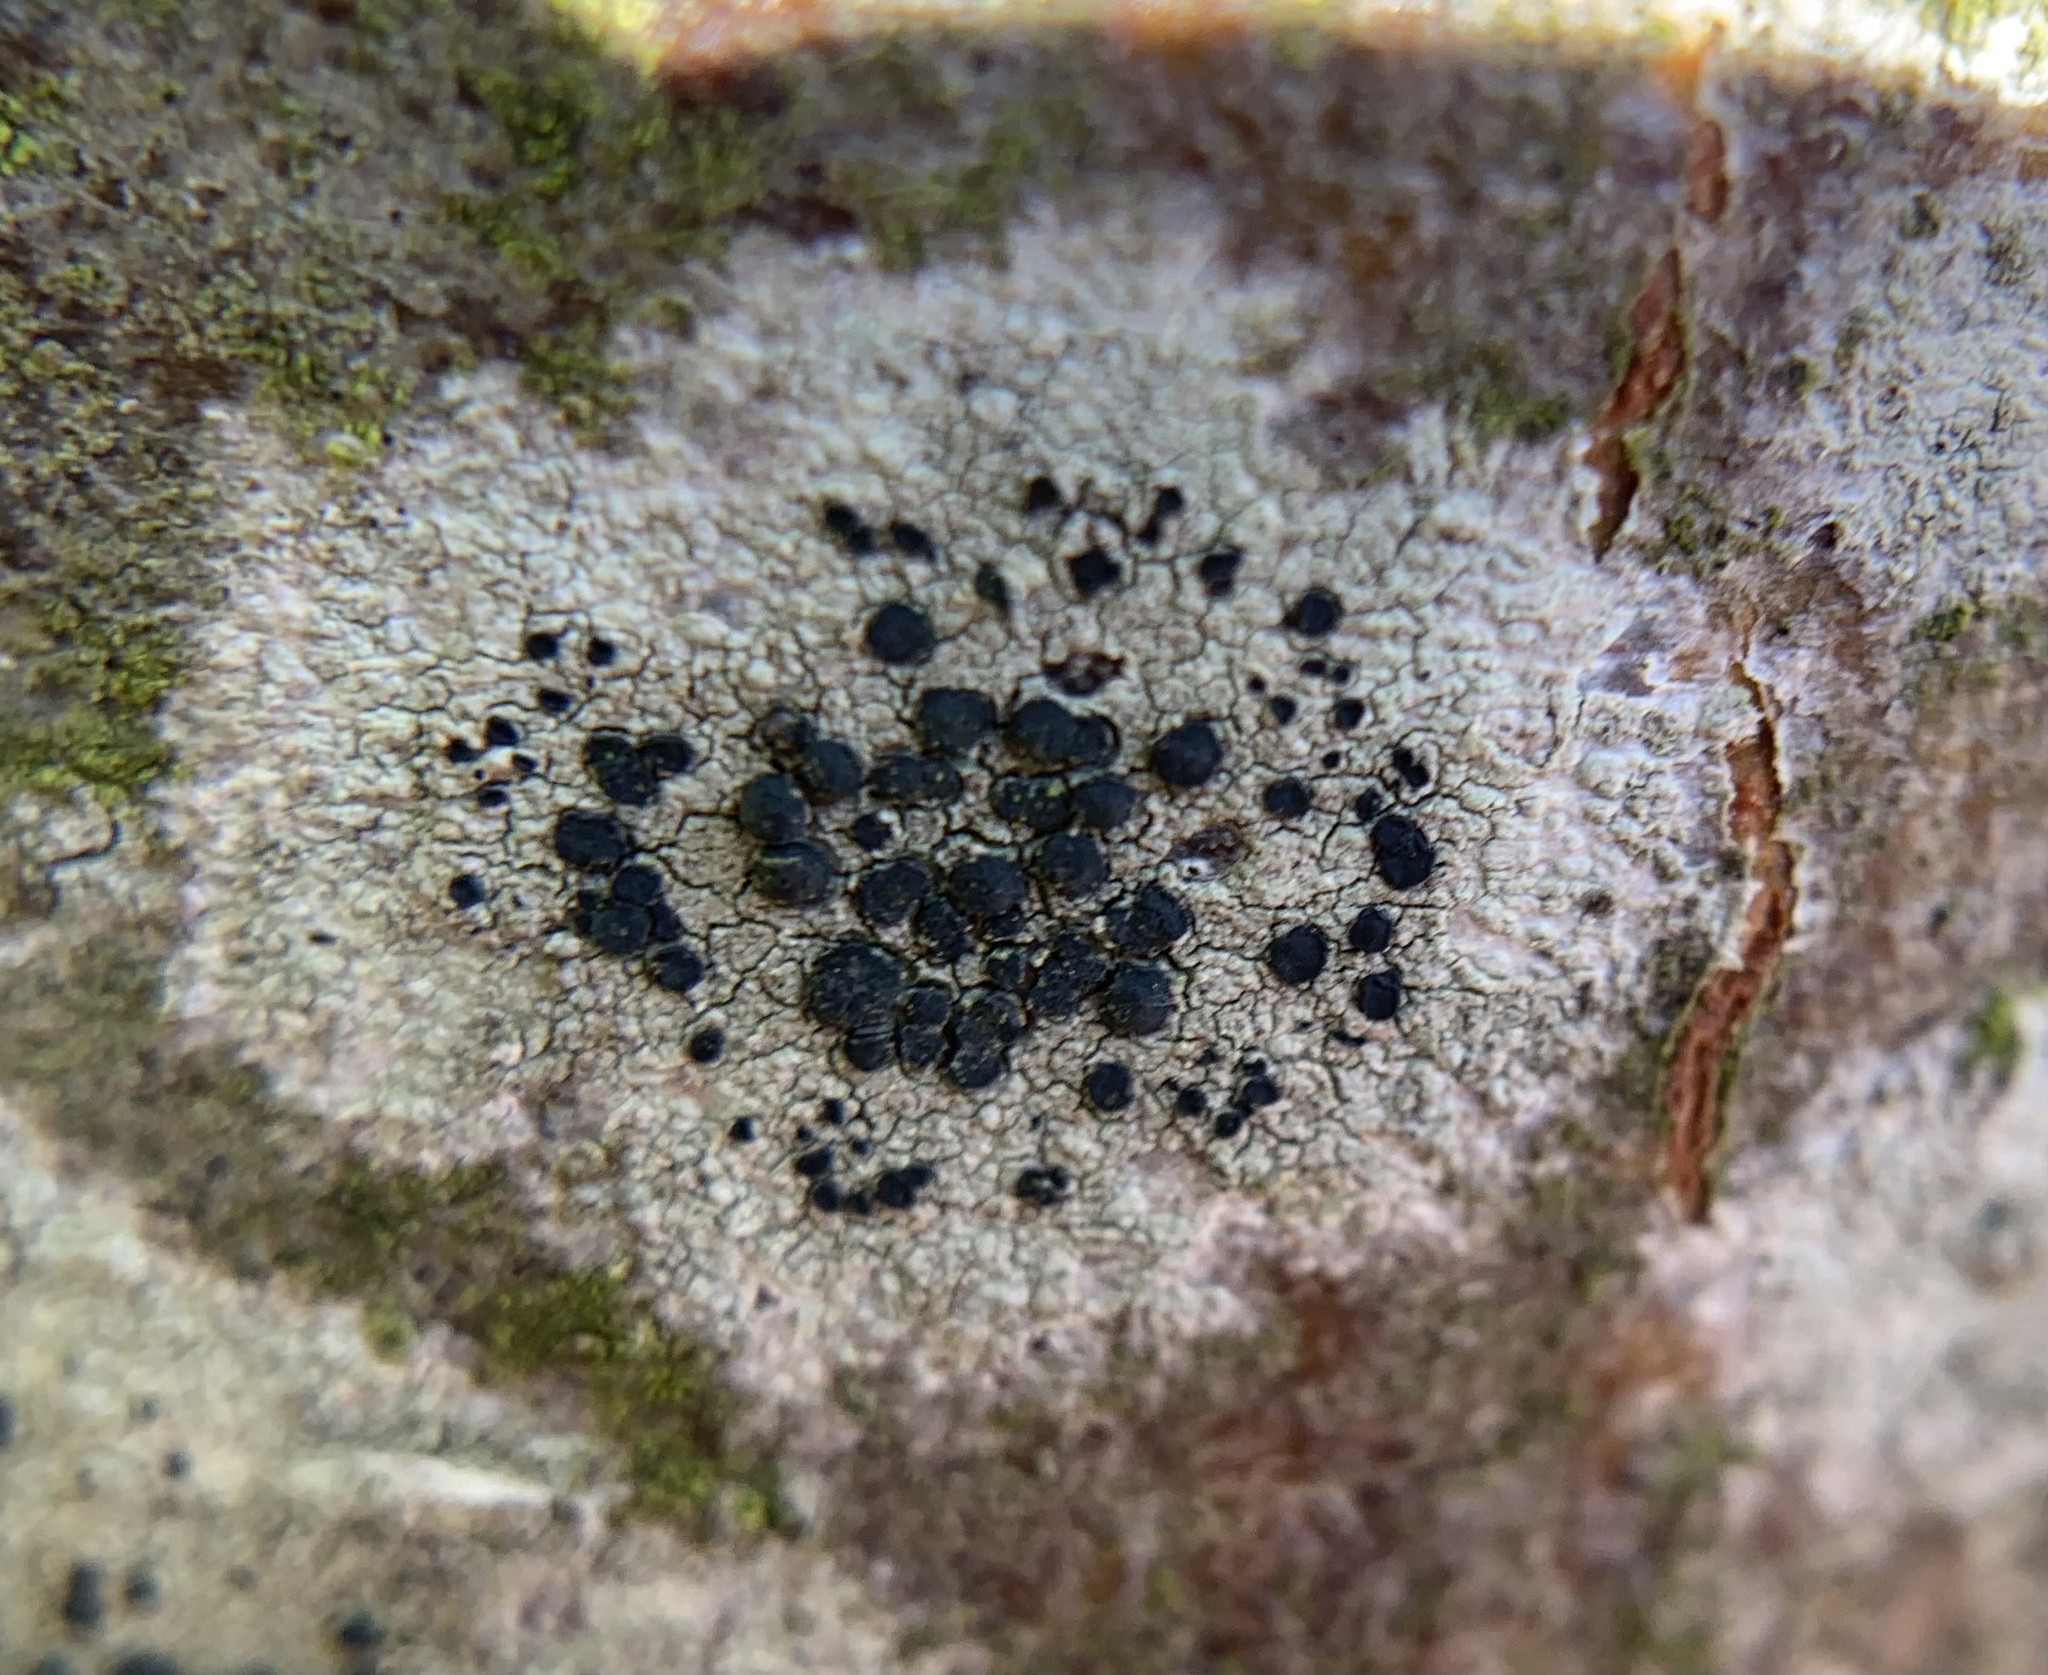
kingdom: Fungi
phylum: Ascomycota
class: Lecanoromycetes
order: Lecanorales
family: Lecanoraceae
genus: Lecidella
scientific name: Lecidella elaeochroma
